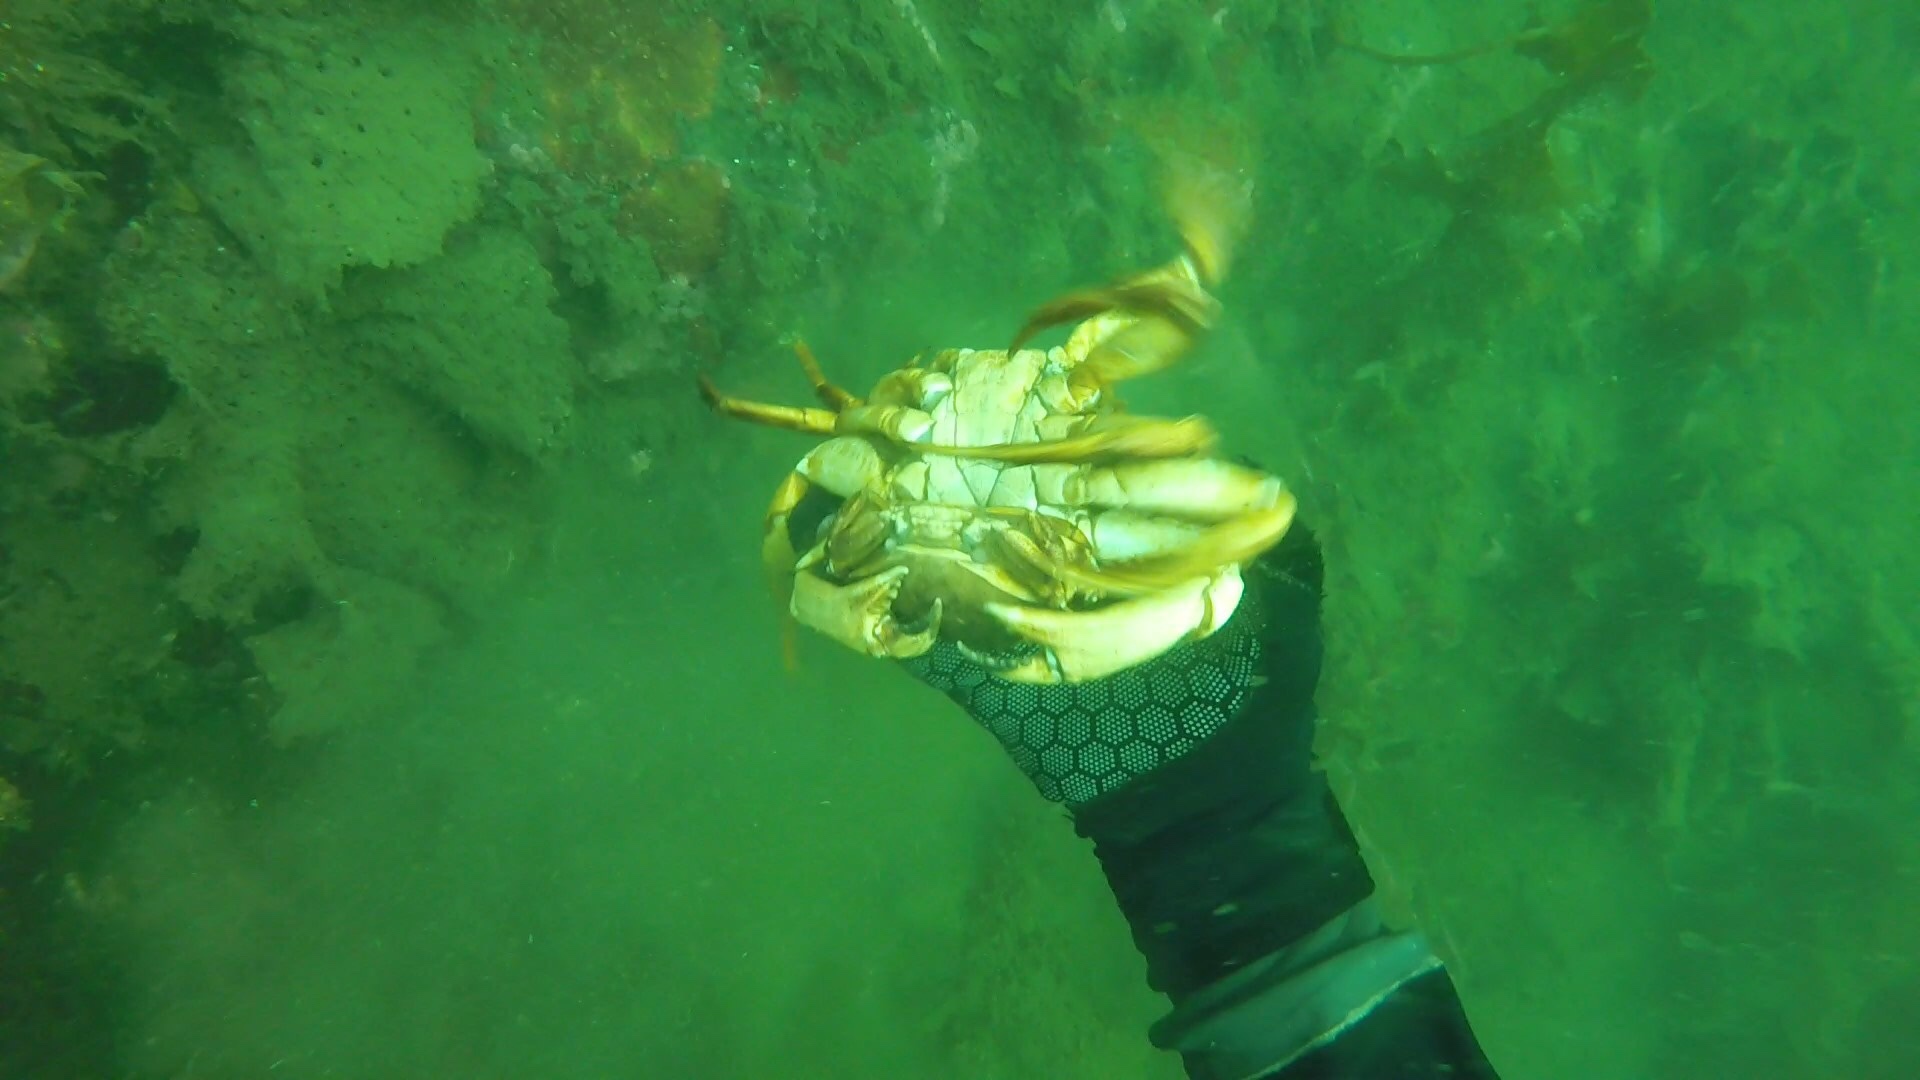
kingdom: Animalia
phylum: Arthropoda
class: Malacostraca
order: Decapoda
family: Cancridae
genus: Cancer
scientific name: Cancer irroratus
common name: Atlantic rock crab
